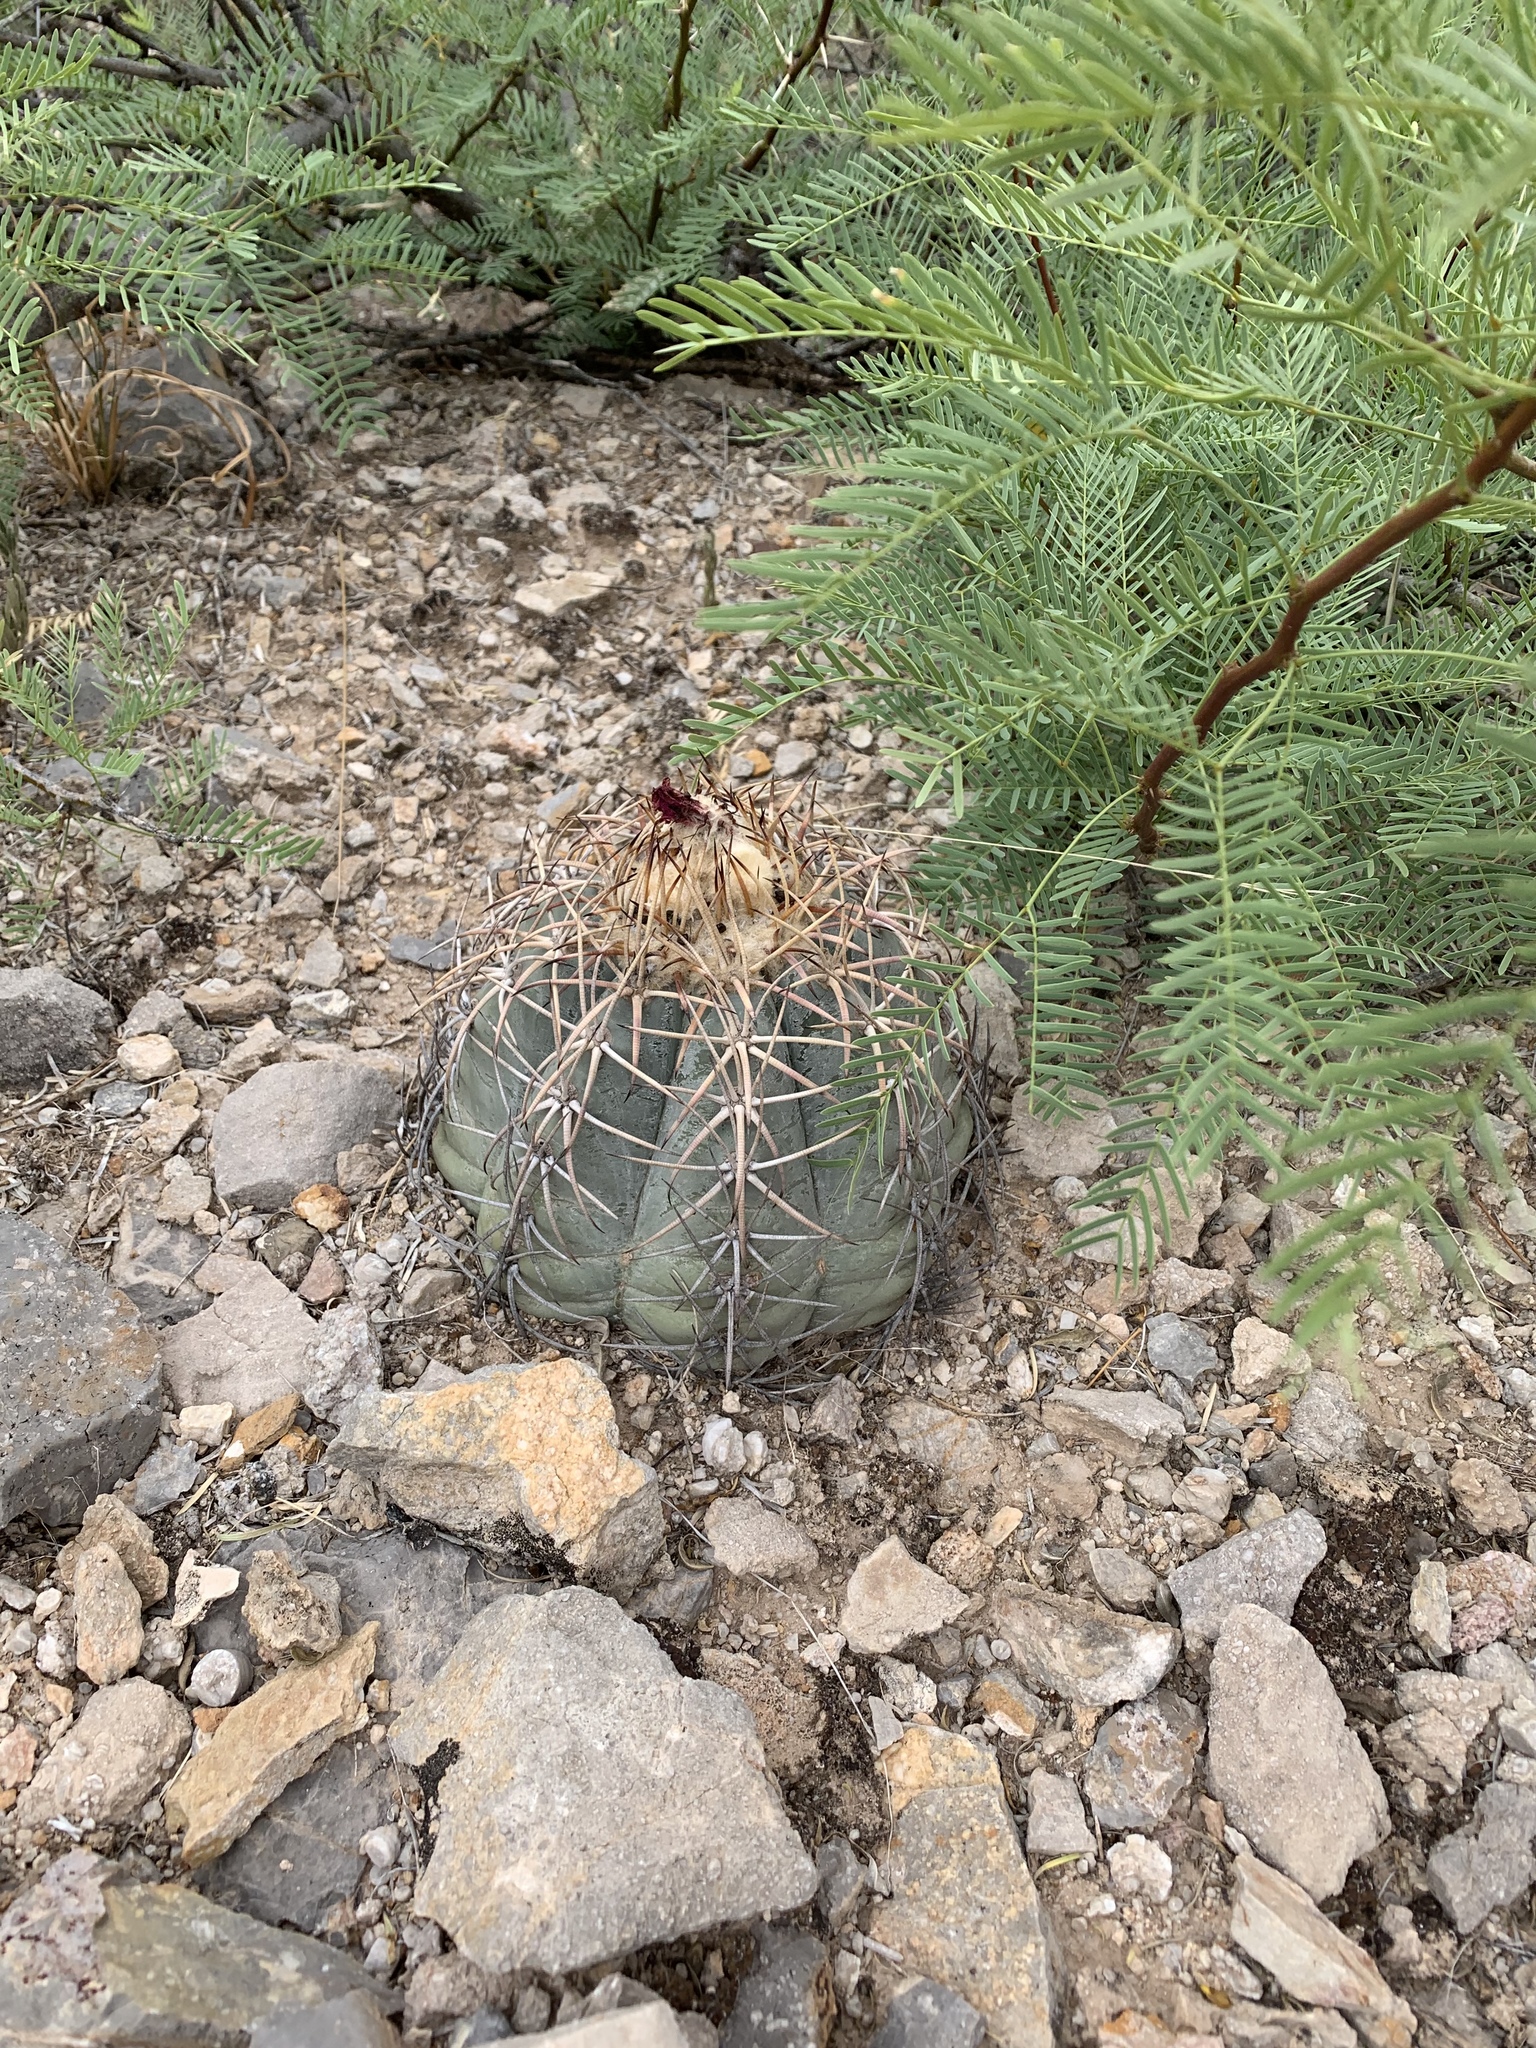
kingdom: Plantae
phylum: Tracheophyta
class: Magnoliopsida
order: Caryophyllales
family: Cactaceae
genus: Echinocactus
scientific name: Echinocactus horizonthalonius
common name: Devilshead
